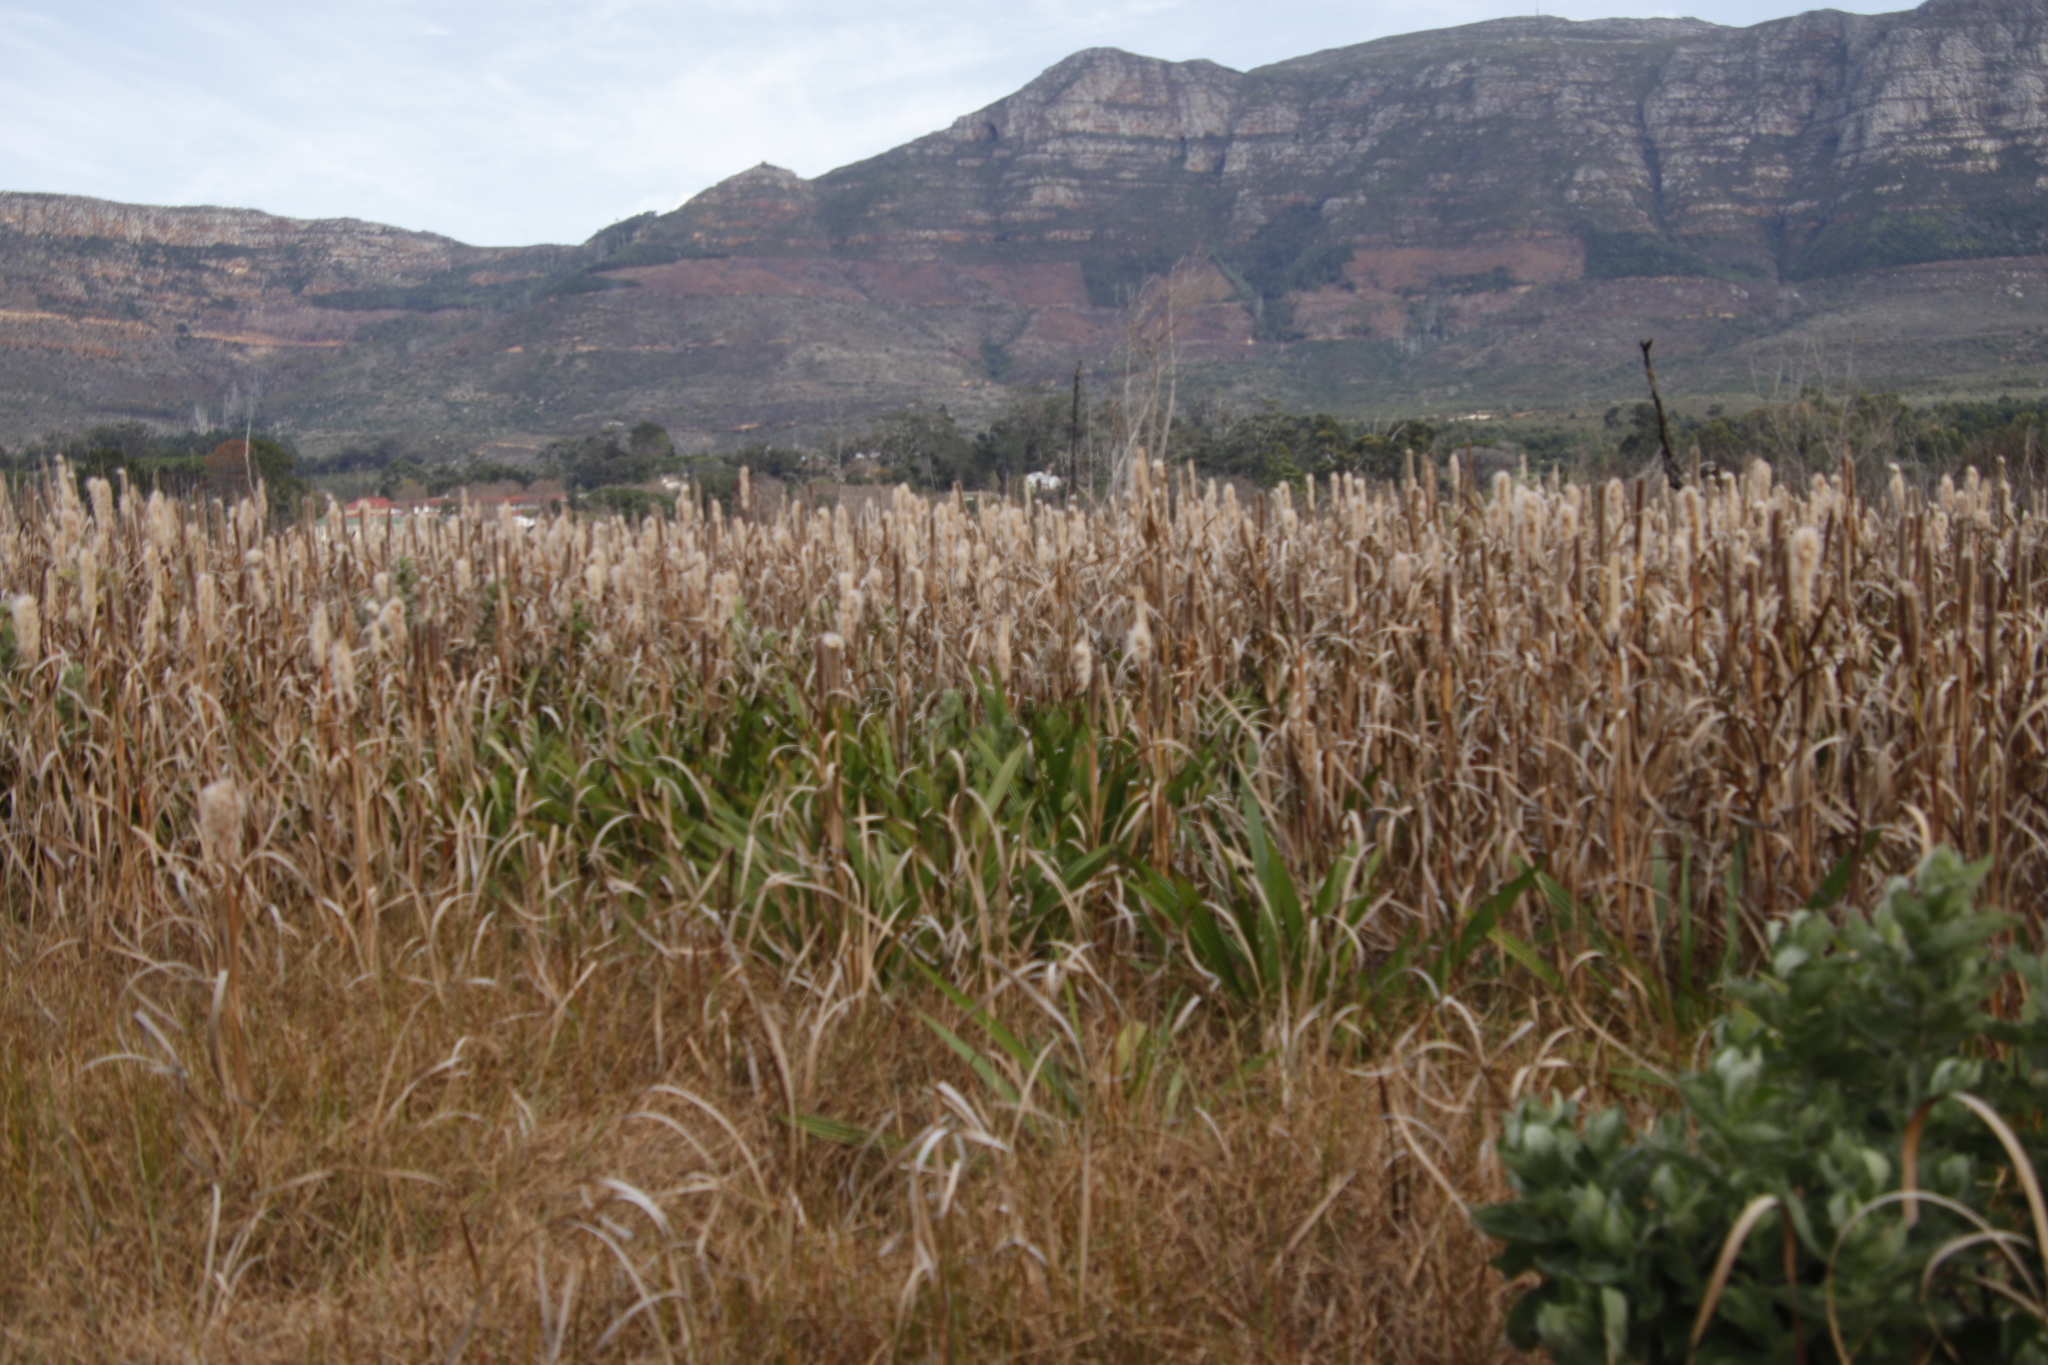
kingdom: Plantae
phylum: Tracheophyta
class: Liliopsida
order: Poales
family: Typhaceae
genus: Typha
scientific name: Typha capensis
